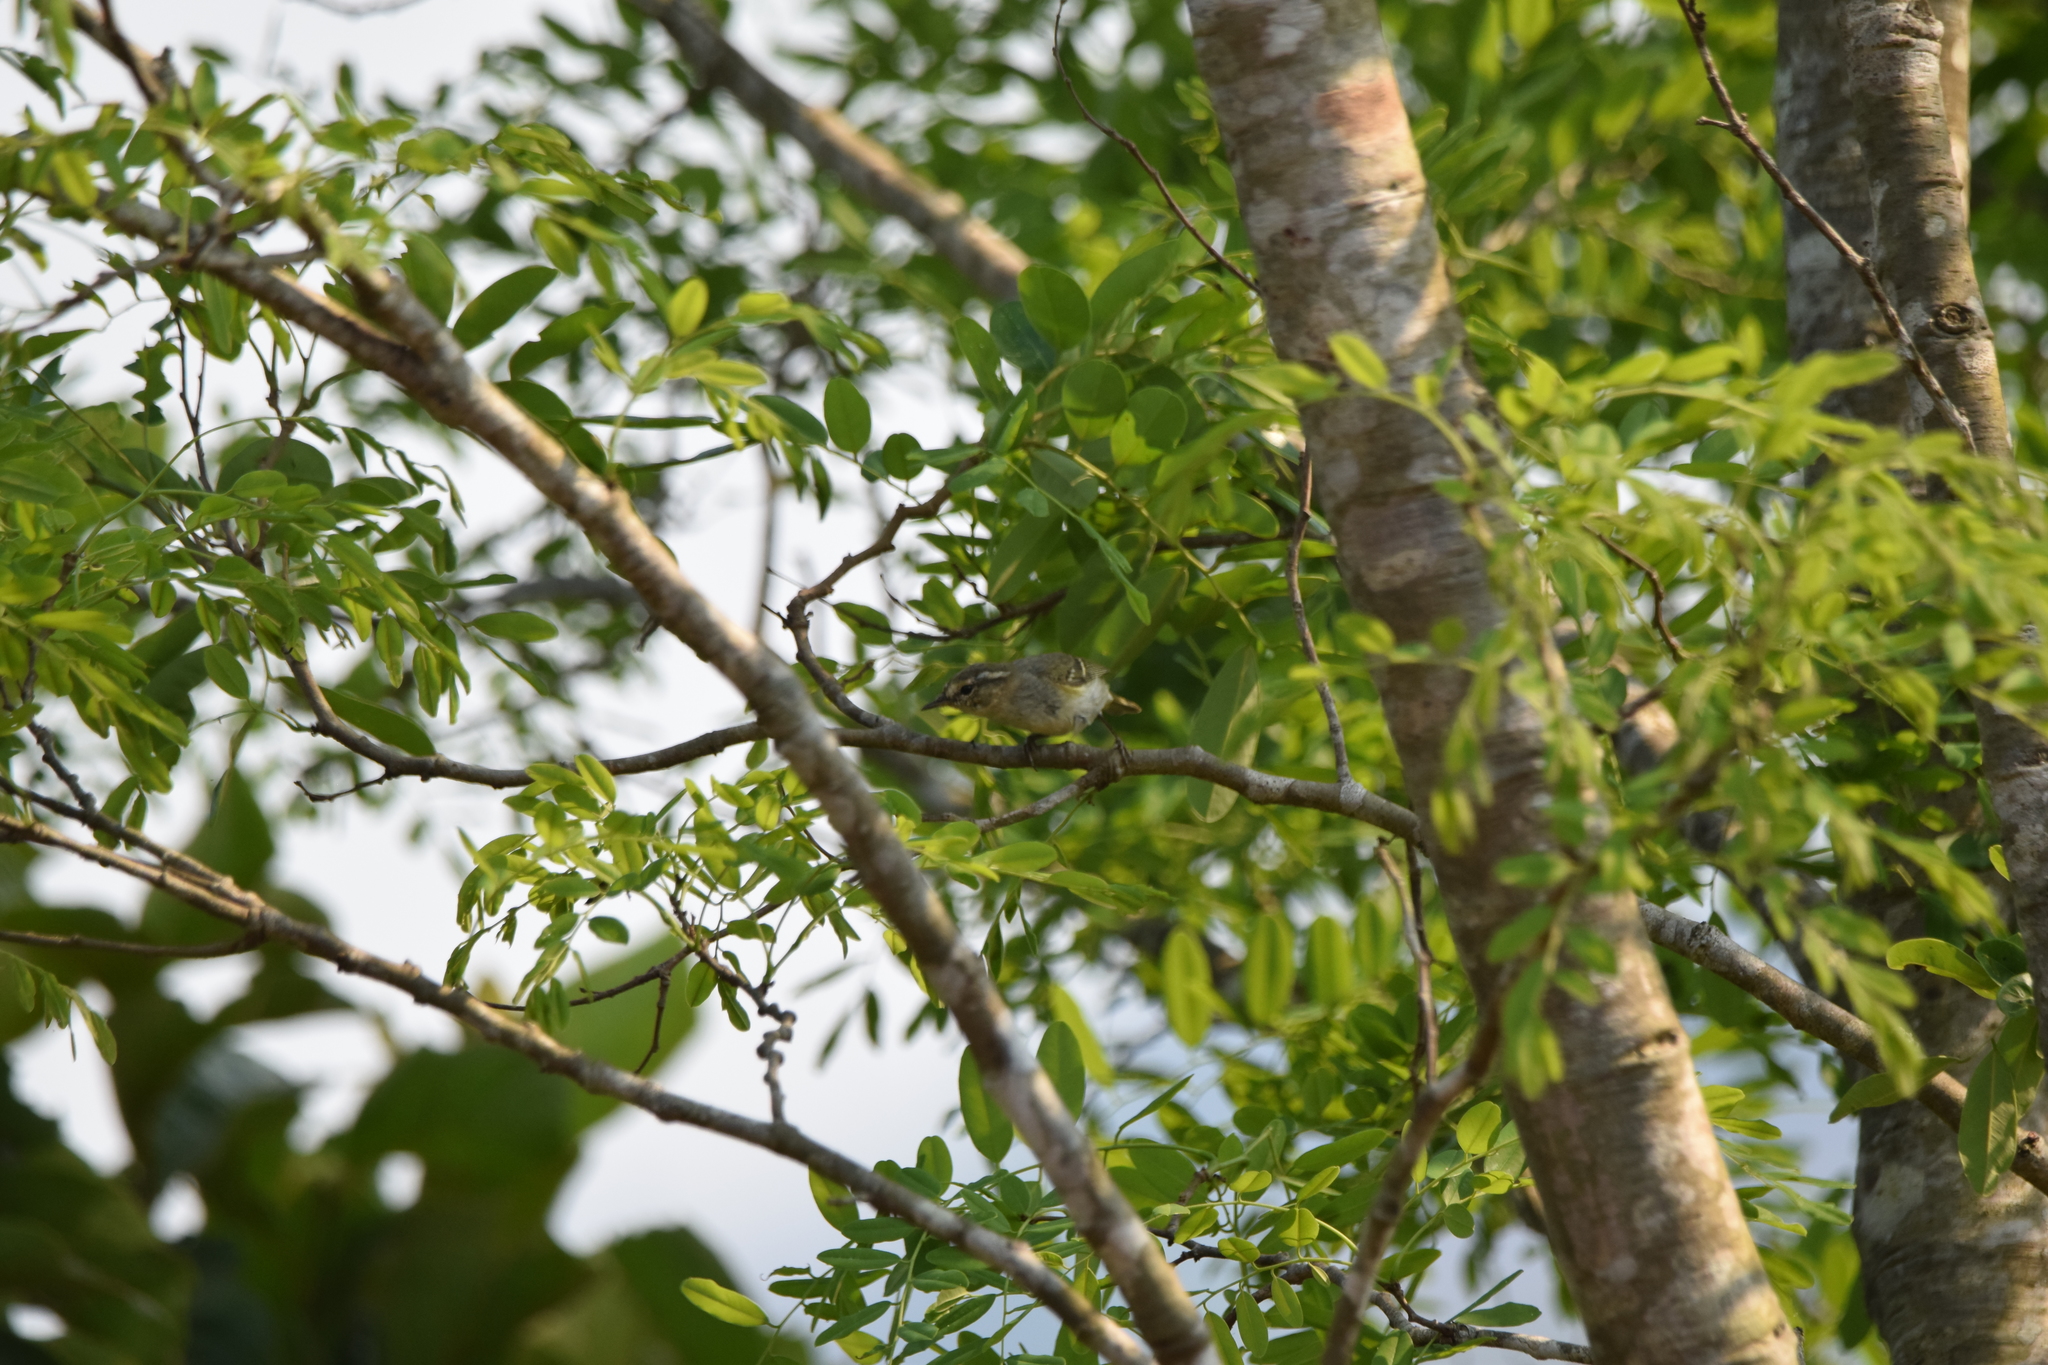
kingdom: Animalia
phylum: Chordata
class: Aves
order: Passeriformes
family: Phylloscopidae
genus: Phylloscopus
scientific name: Phylloscopus inornatus
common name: Yellow-browed warbler
